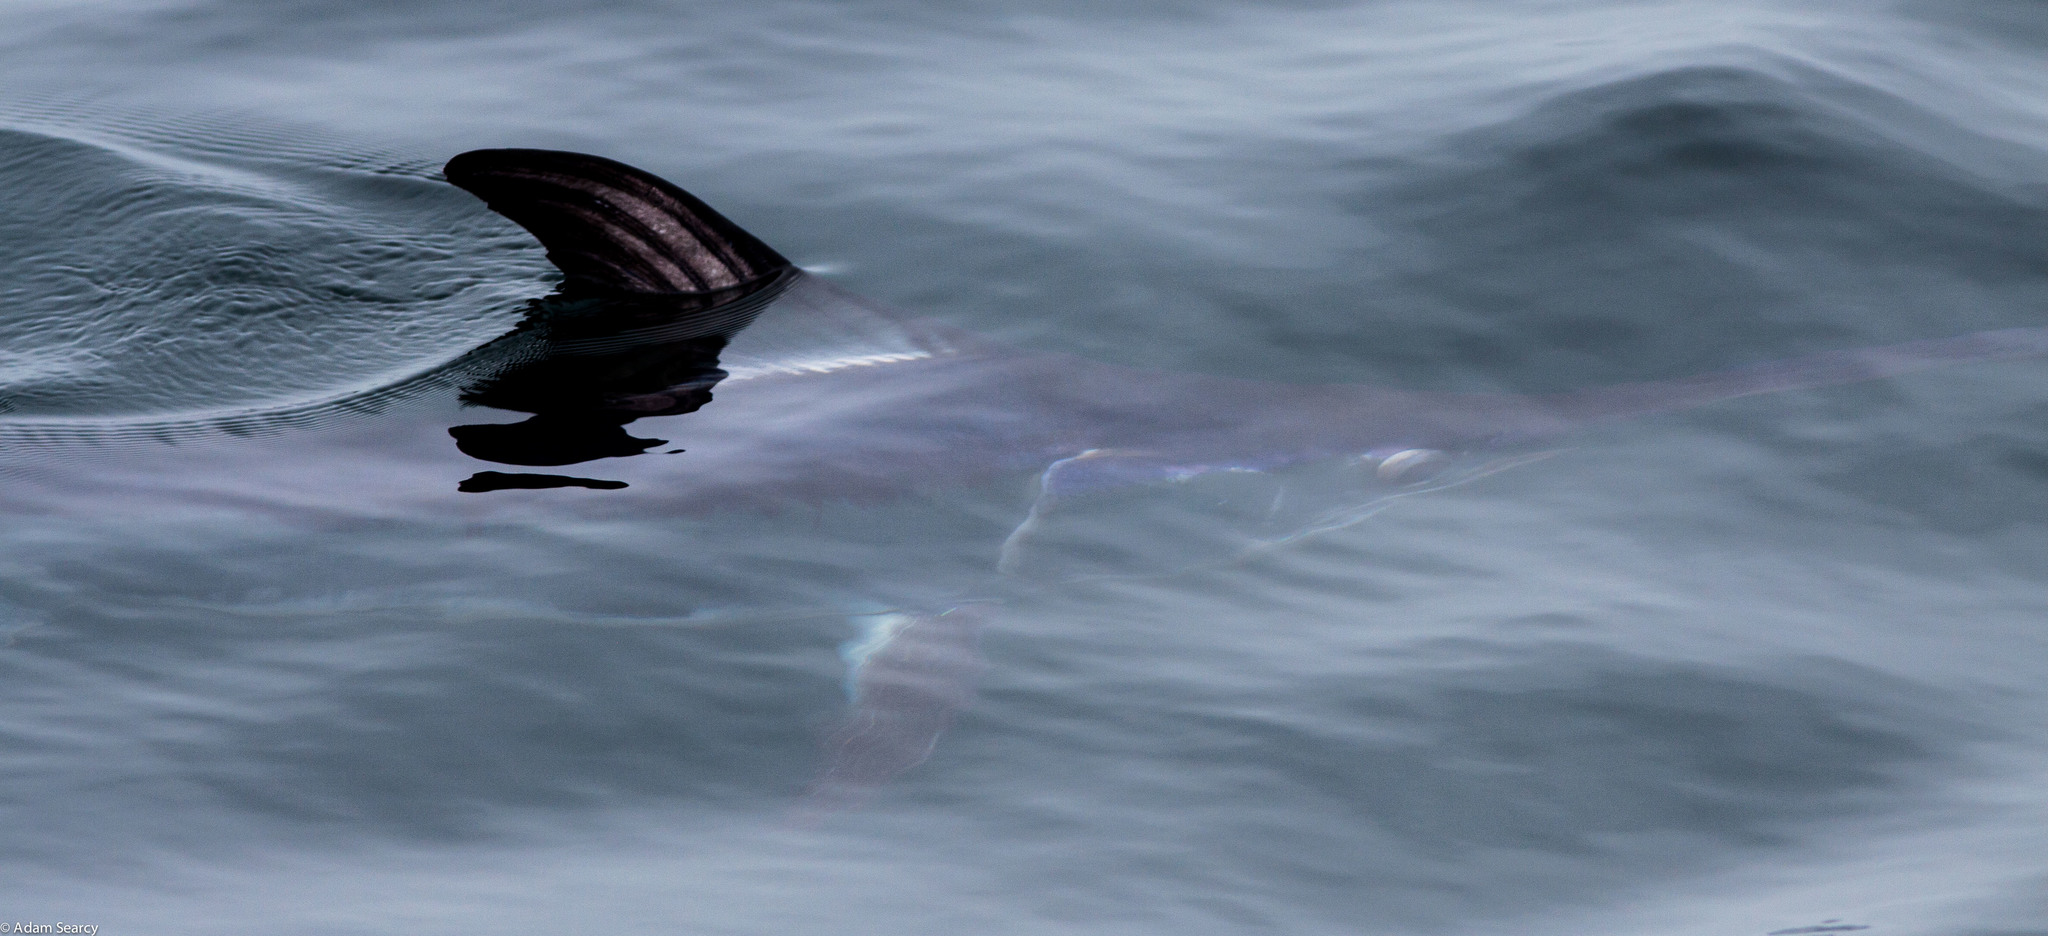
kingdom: Animalia
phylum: Chordata
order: Perciformes
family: Xiphiidae
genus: Xiphias
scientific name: Xiphias gladius
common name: Swordfish
